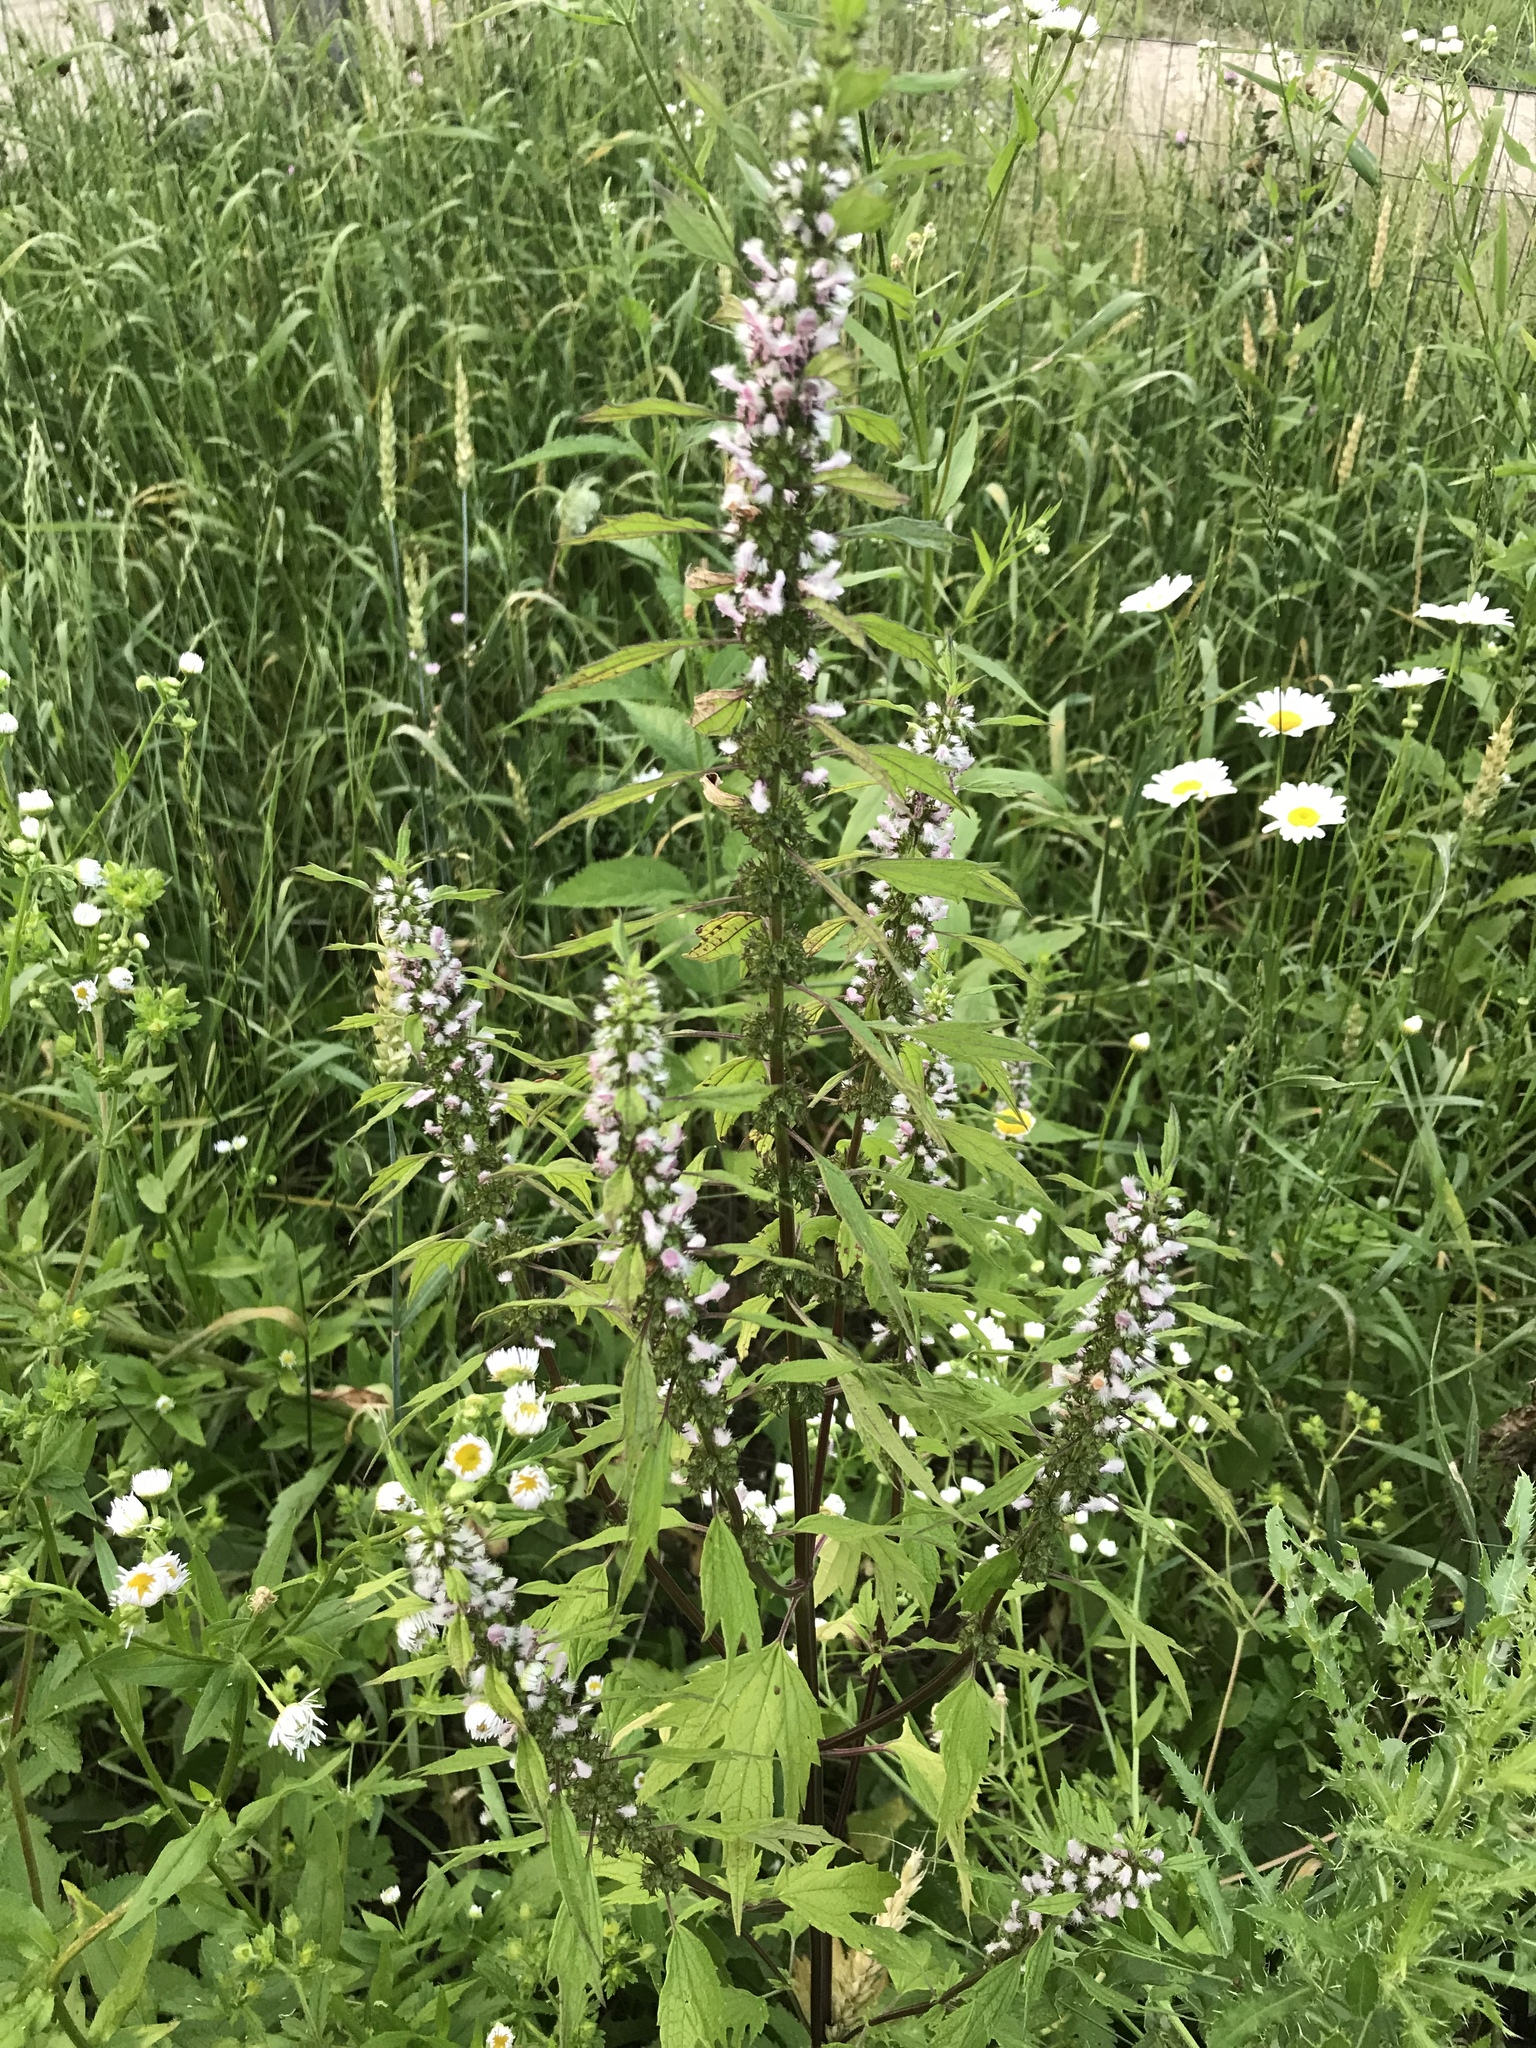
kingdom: Plantae
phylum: Tracheophyta
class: Magnoliopsida
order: Lamiales
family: Lamiaceae
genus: Leonurus
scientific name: Leonurus cardiaca
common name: Motherwort
